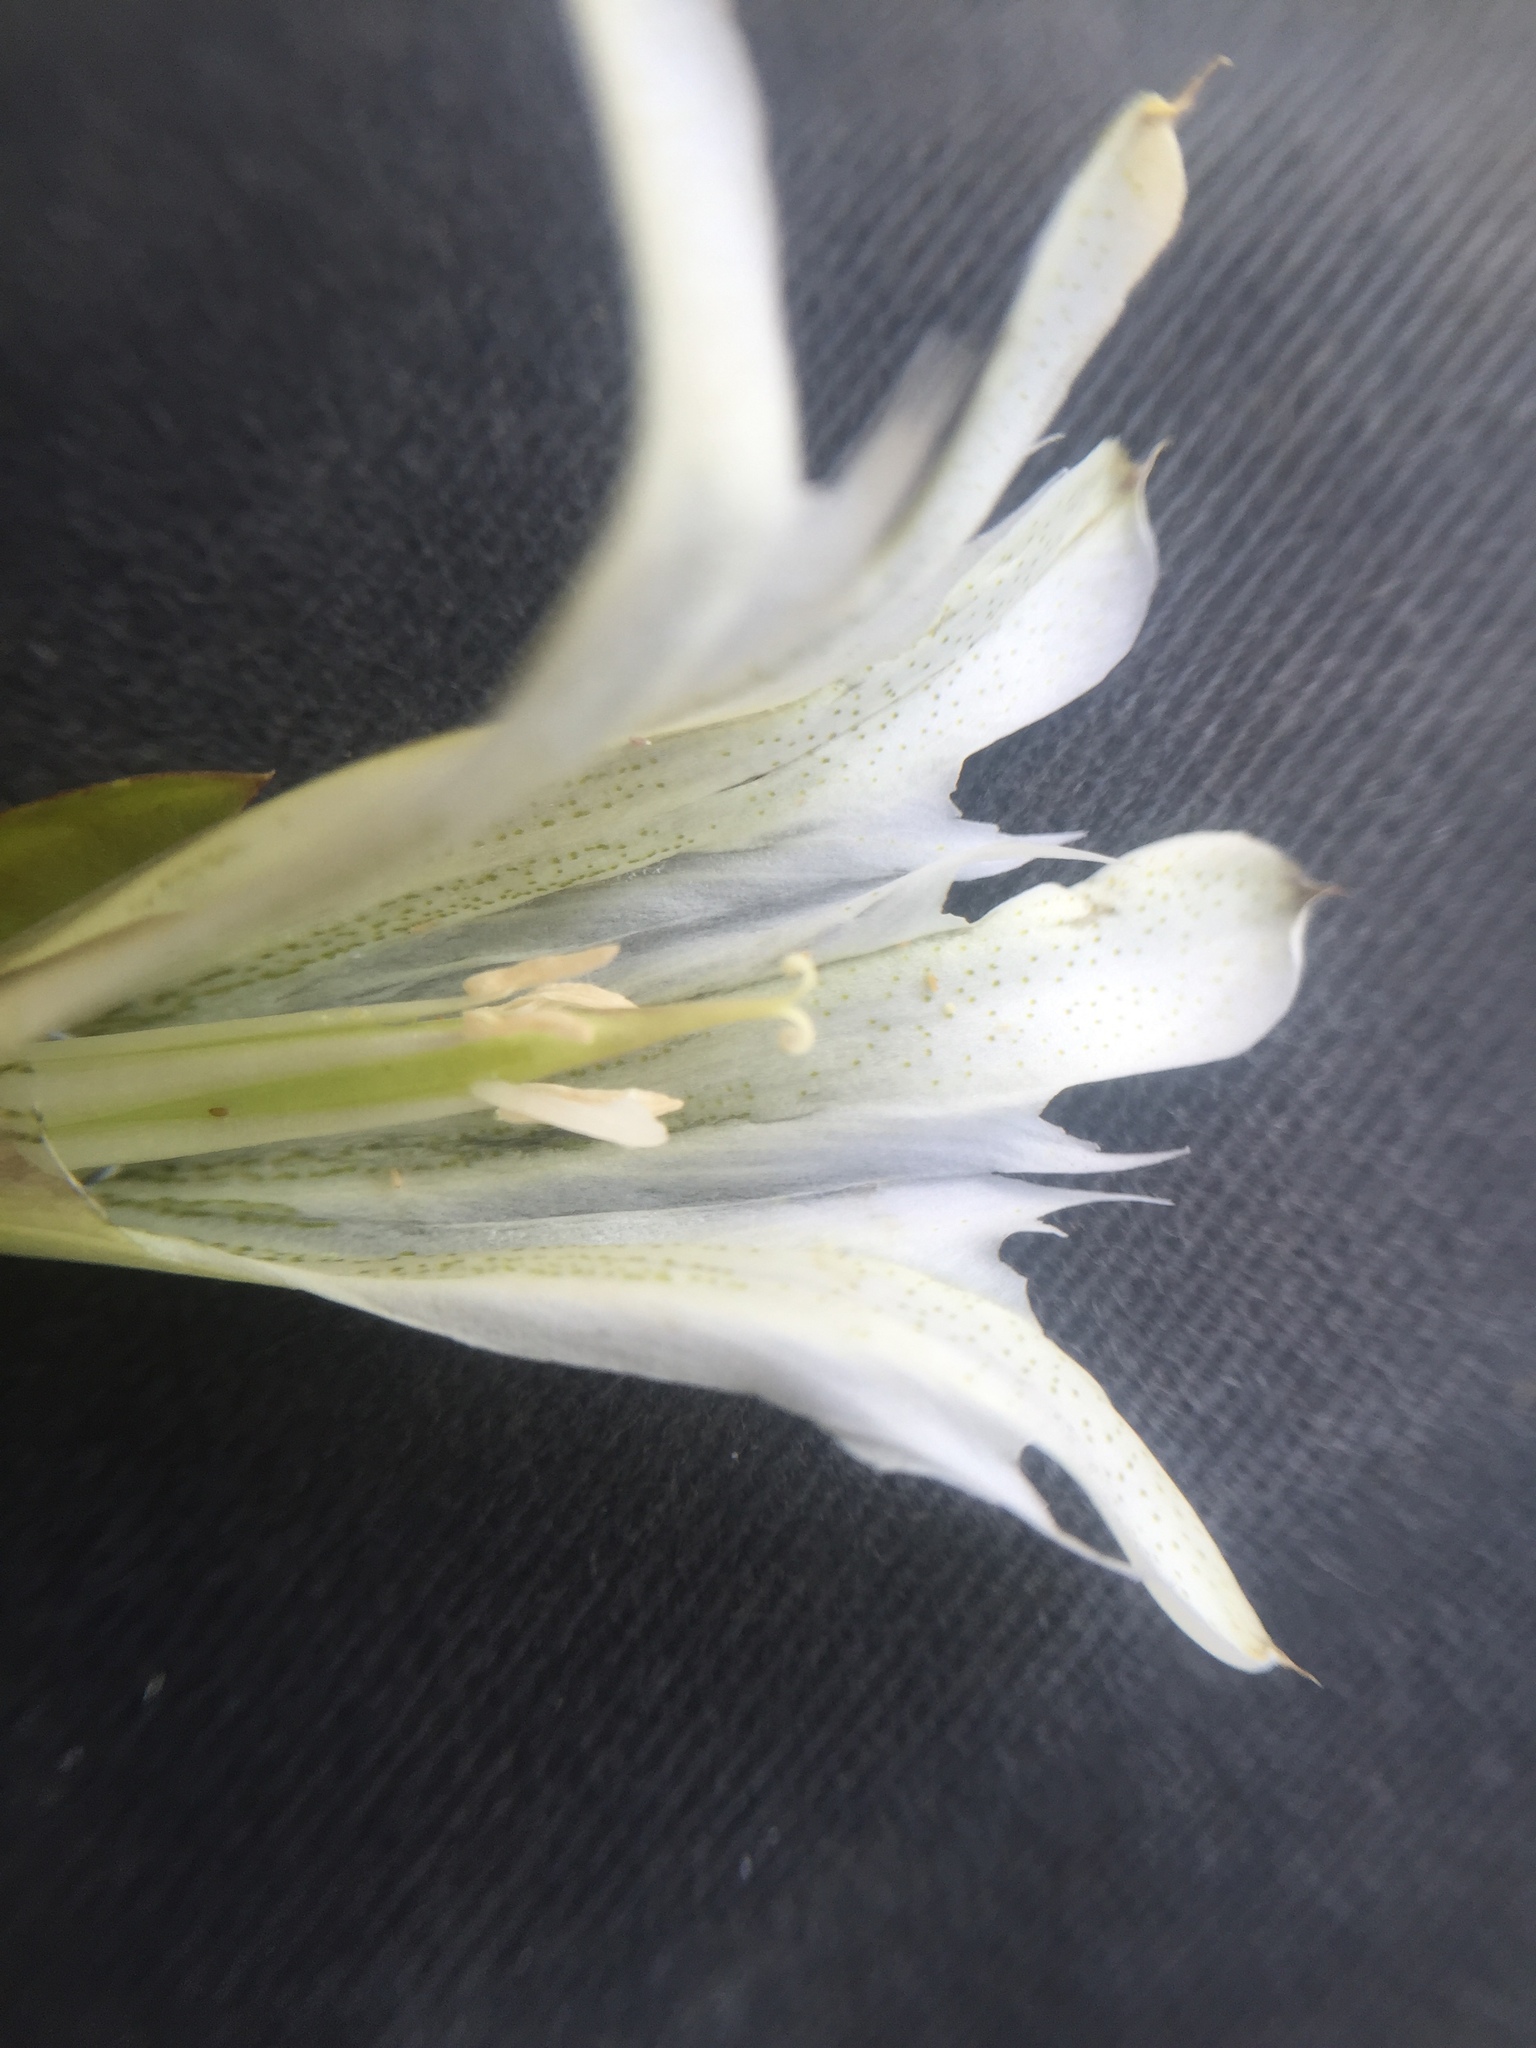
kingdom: Plantae
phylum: Tracheophyta
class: Magnoliopsida
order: Gentianales
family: Gentianaceae
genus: Gentiana
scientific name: Gentiana newberryi
